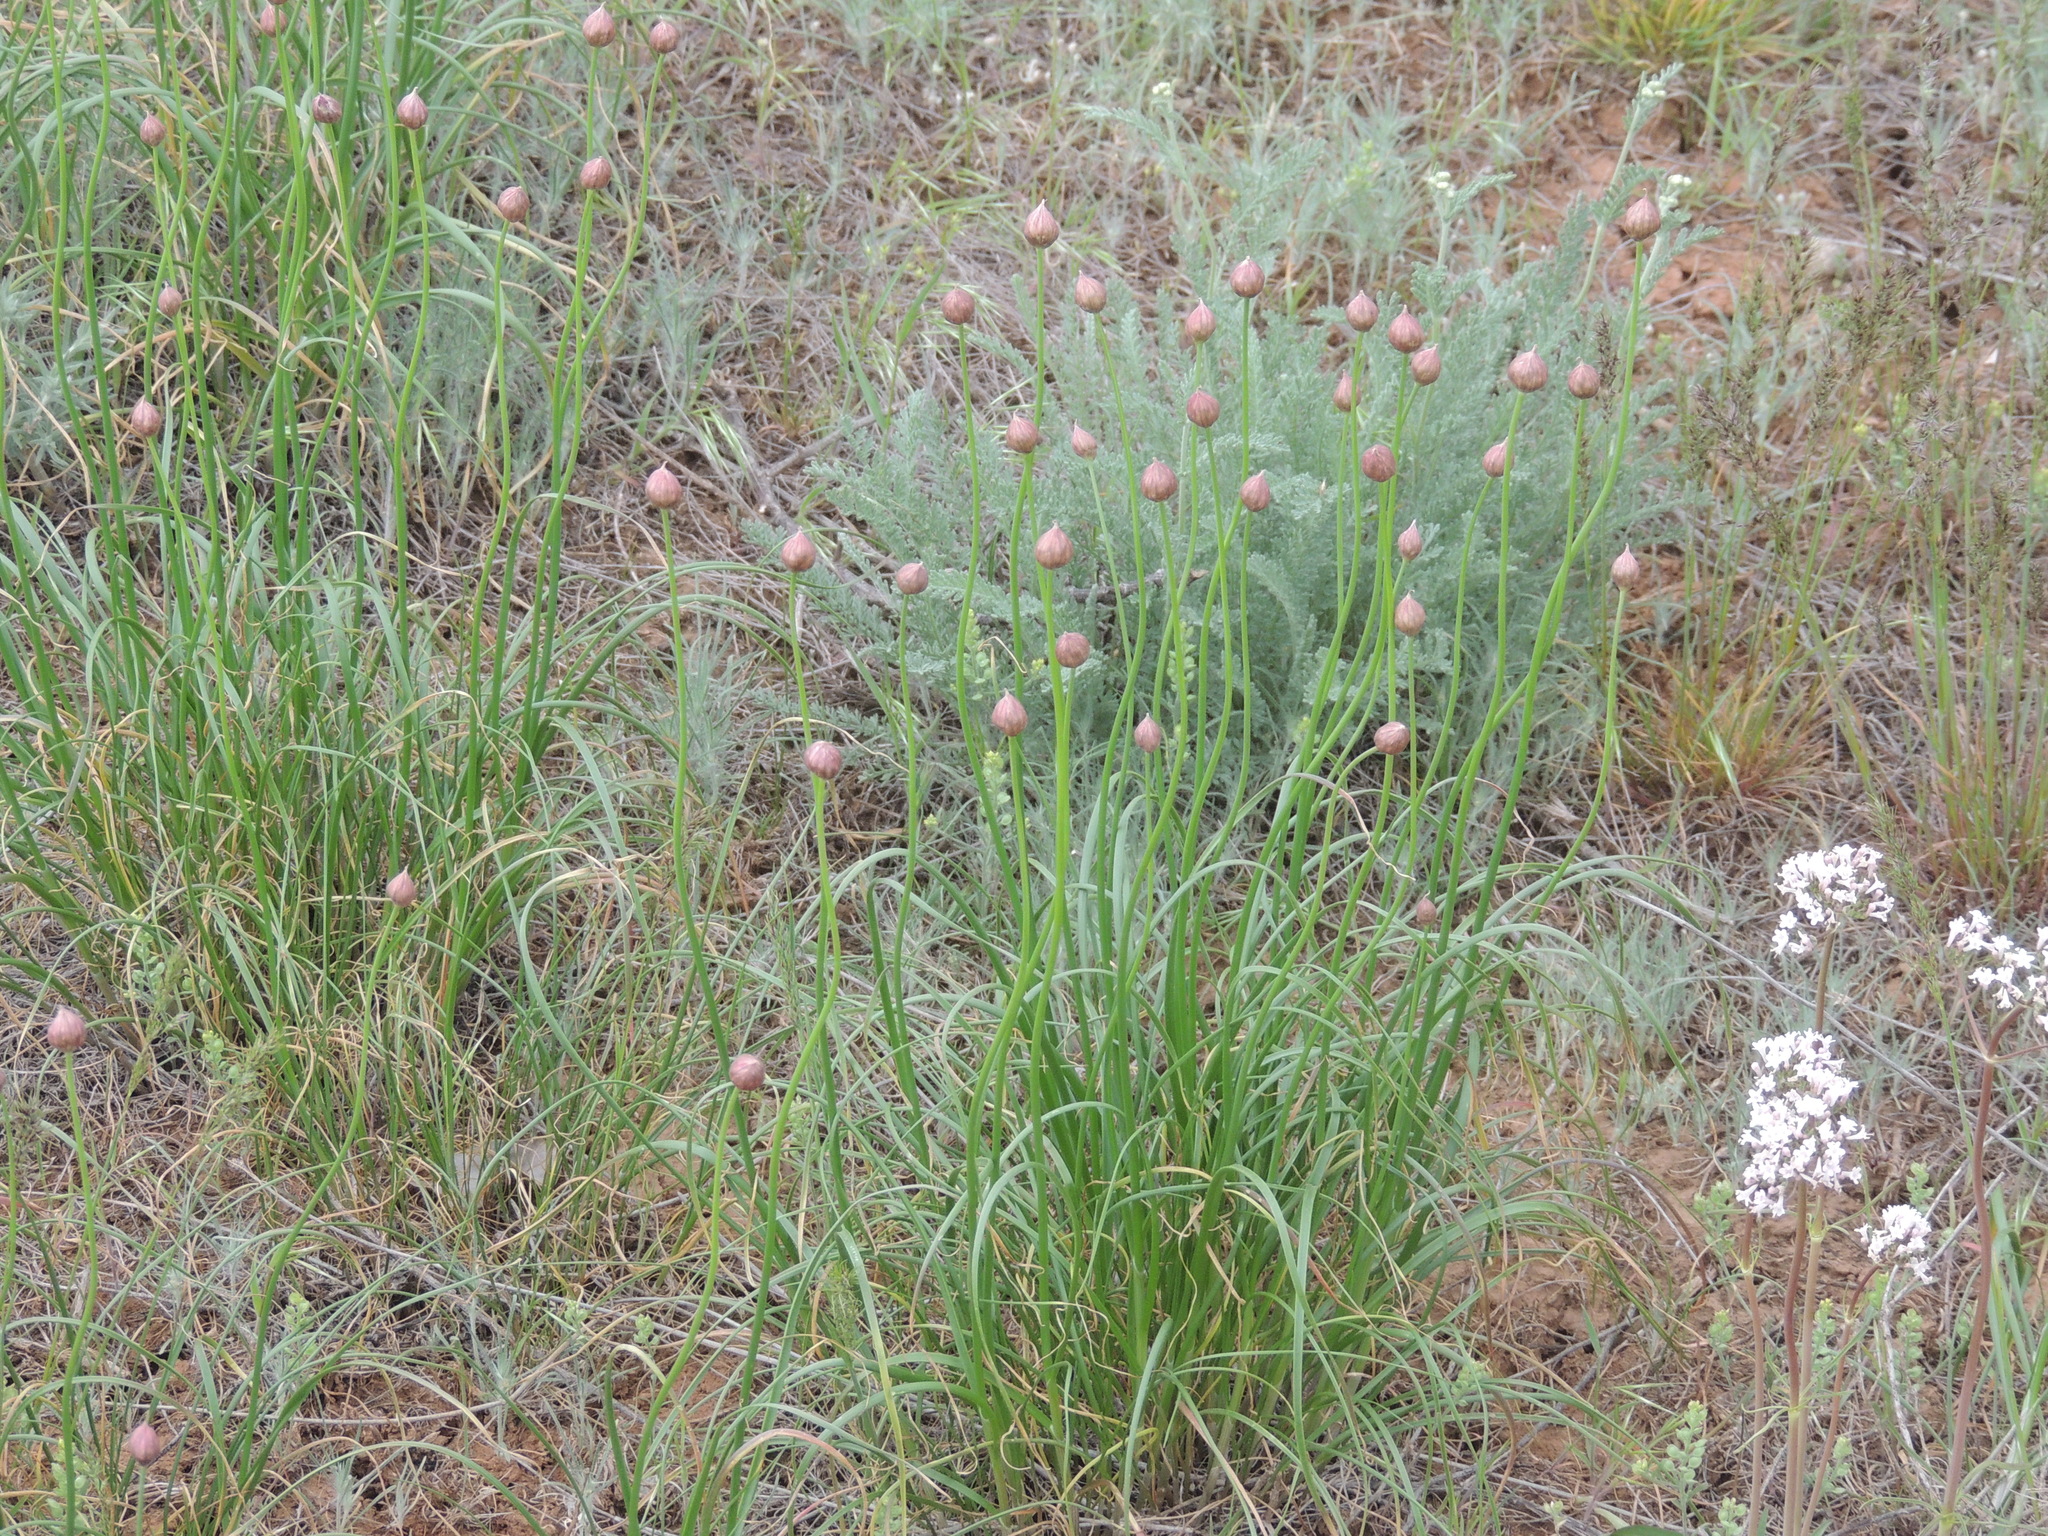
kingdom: Plantae
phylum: Tracheophyta
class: Liliopsida
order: Asparagales
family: Amaryllidaceae
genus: Allium
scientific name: Allium inderiense
